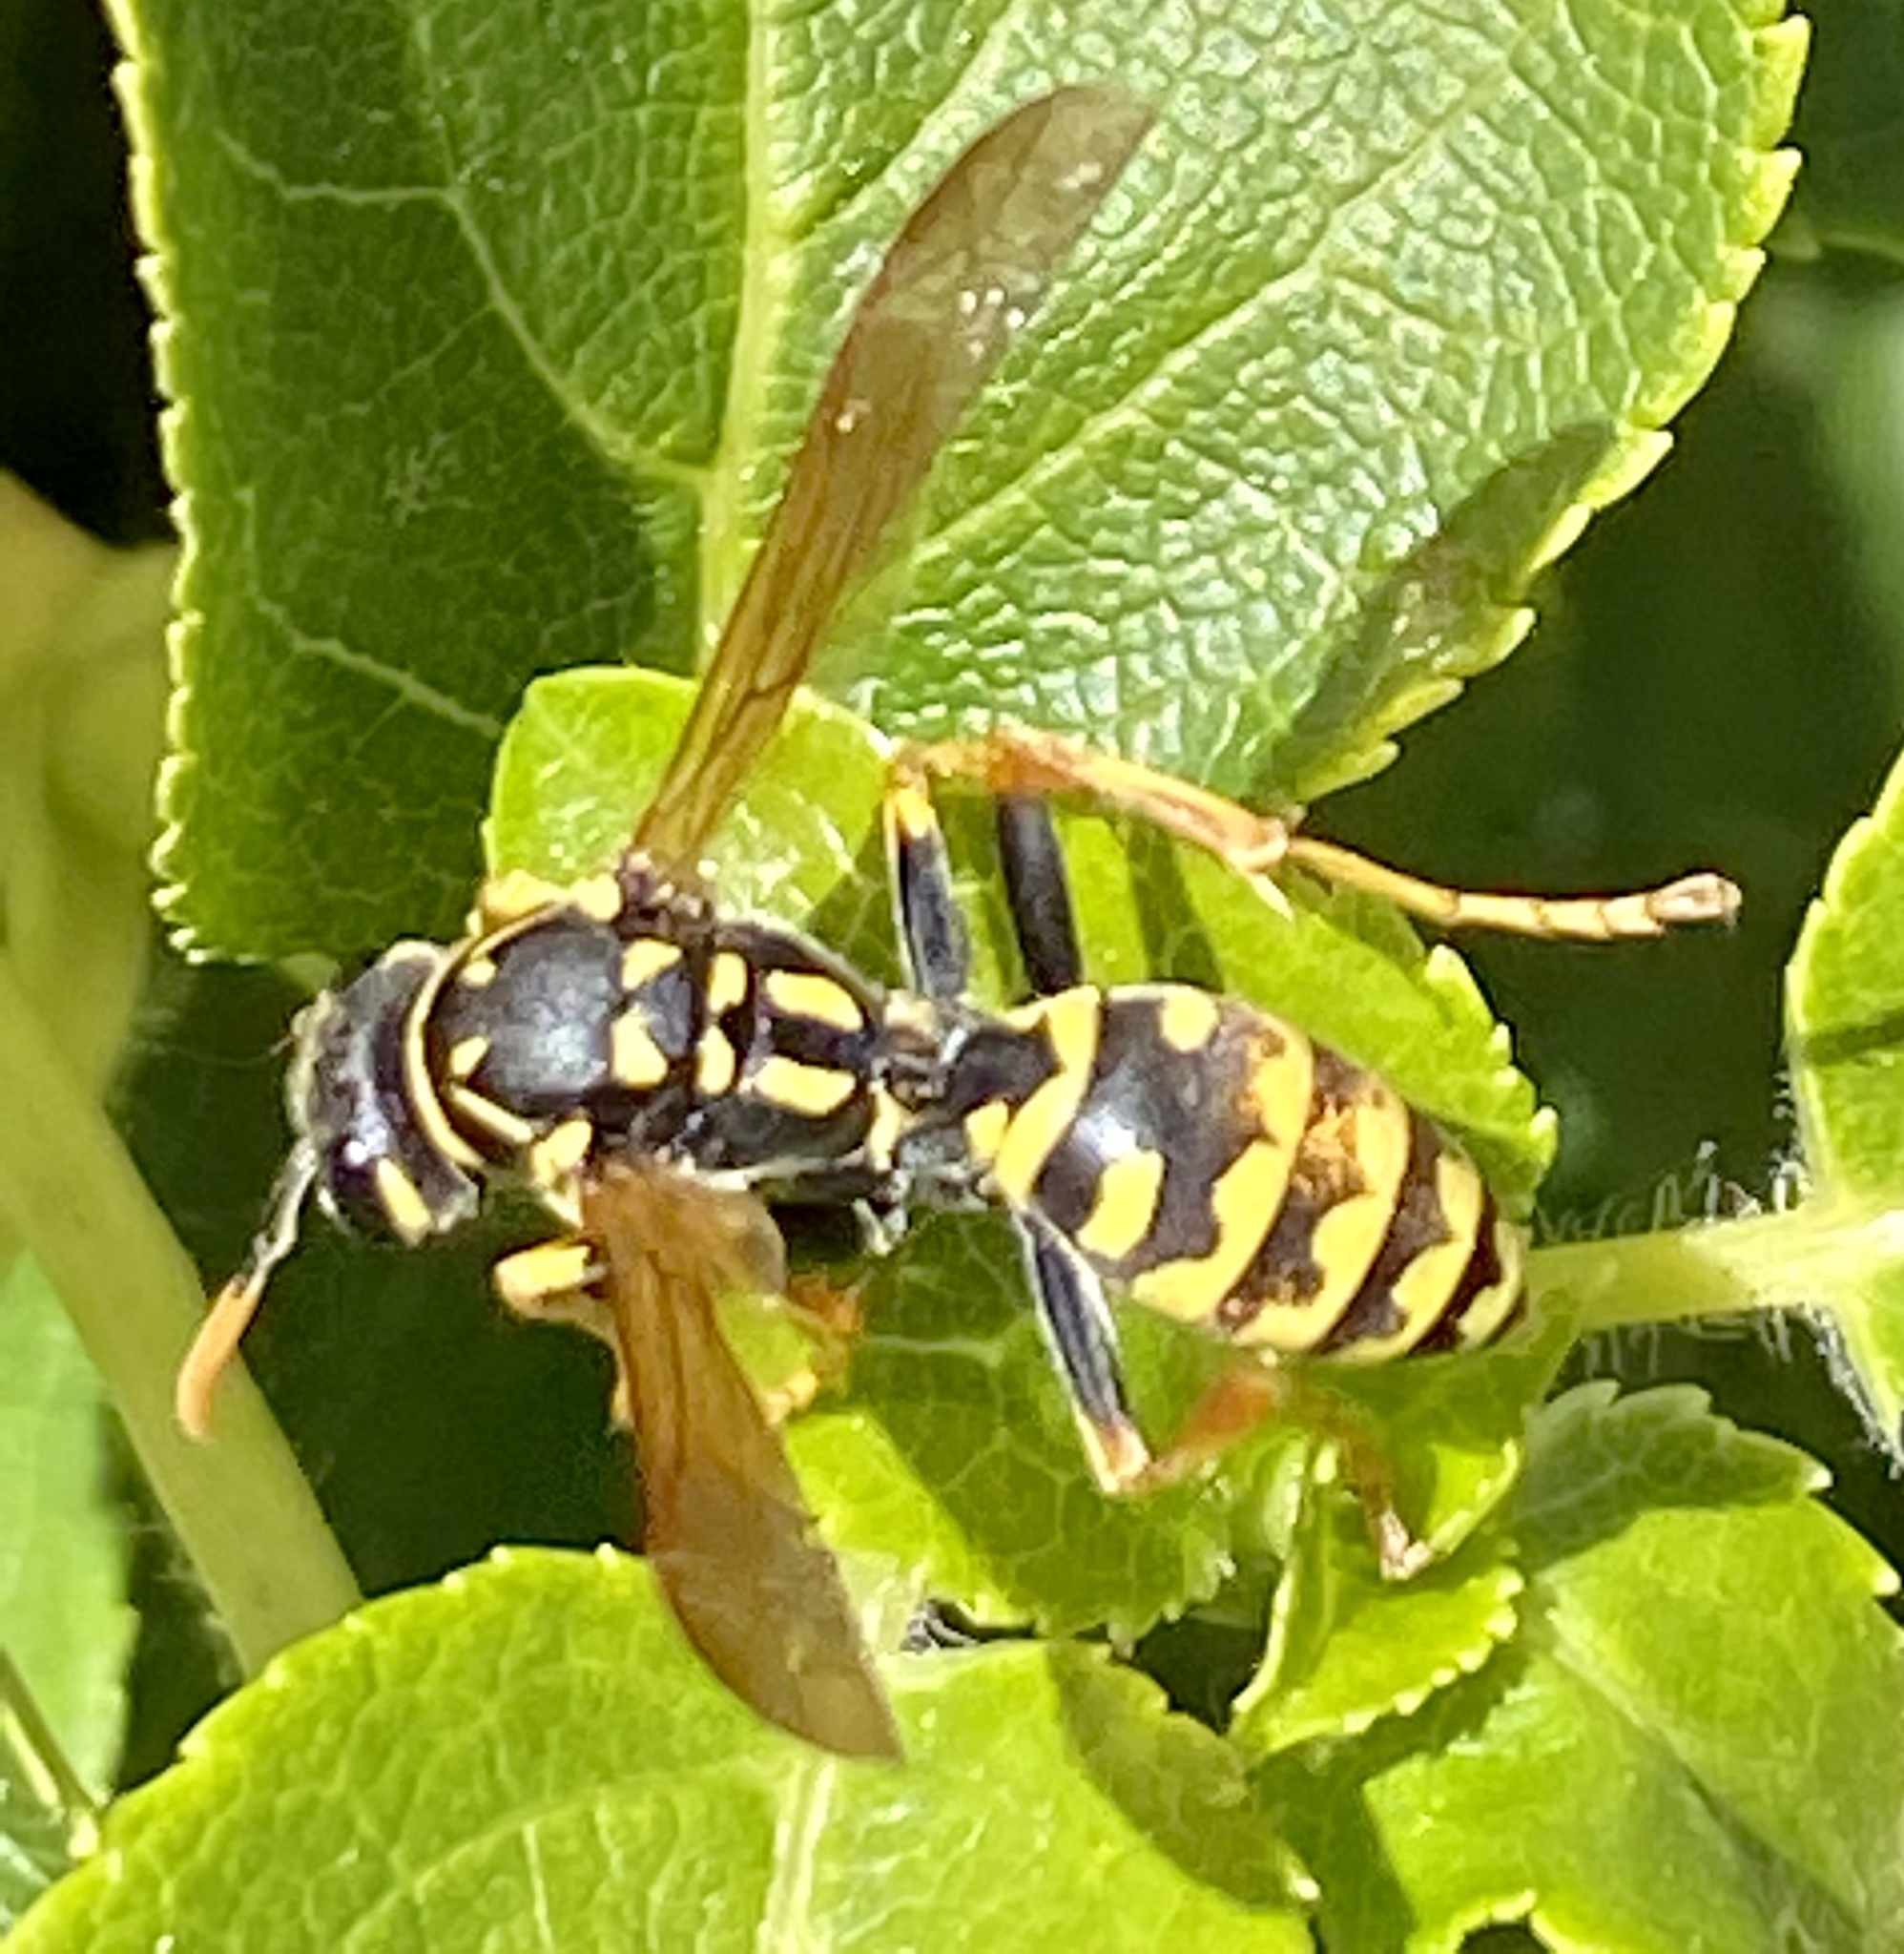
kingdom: Animalia
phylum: Arthropoda
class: Insecta
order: Hymenoptera
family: Eumenidae
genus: Polistes
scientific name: Polistes dominula
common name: Paper wasp
